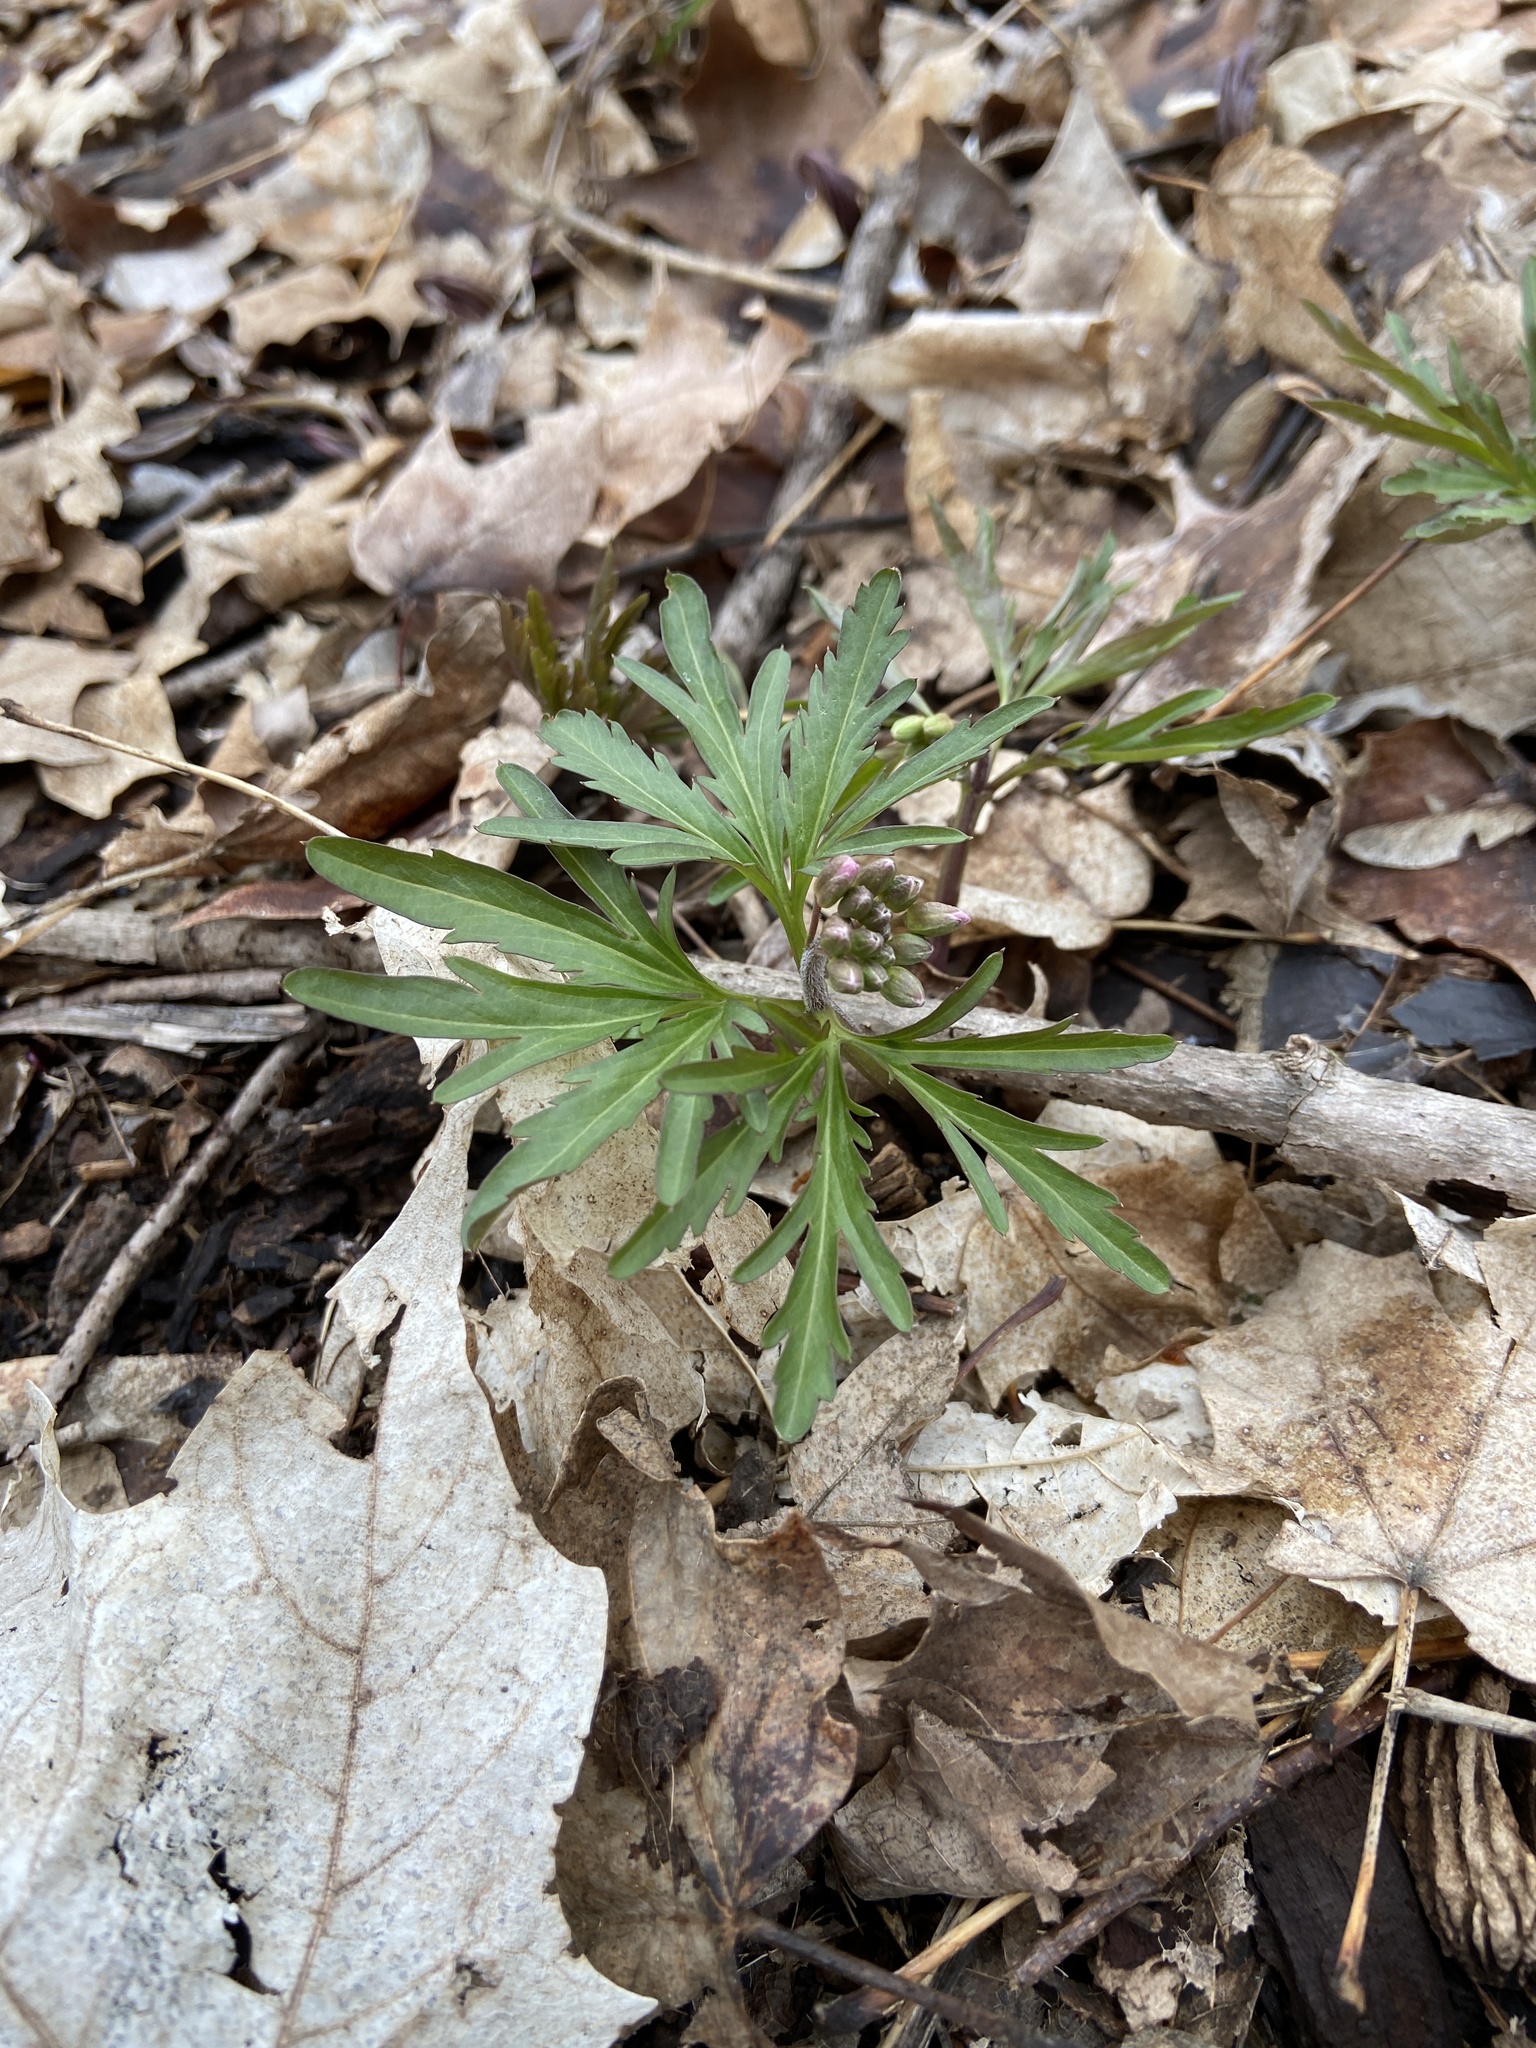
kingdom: Plantae
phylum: Tracheophyta
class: Magnoliopsida
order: Brassicales
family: Brassicaceae
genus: Cardamine
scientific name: Cardamine concatenata
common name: Cut-leaf toothcup
